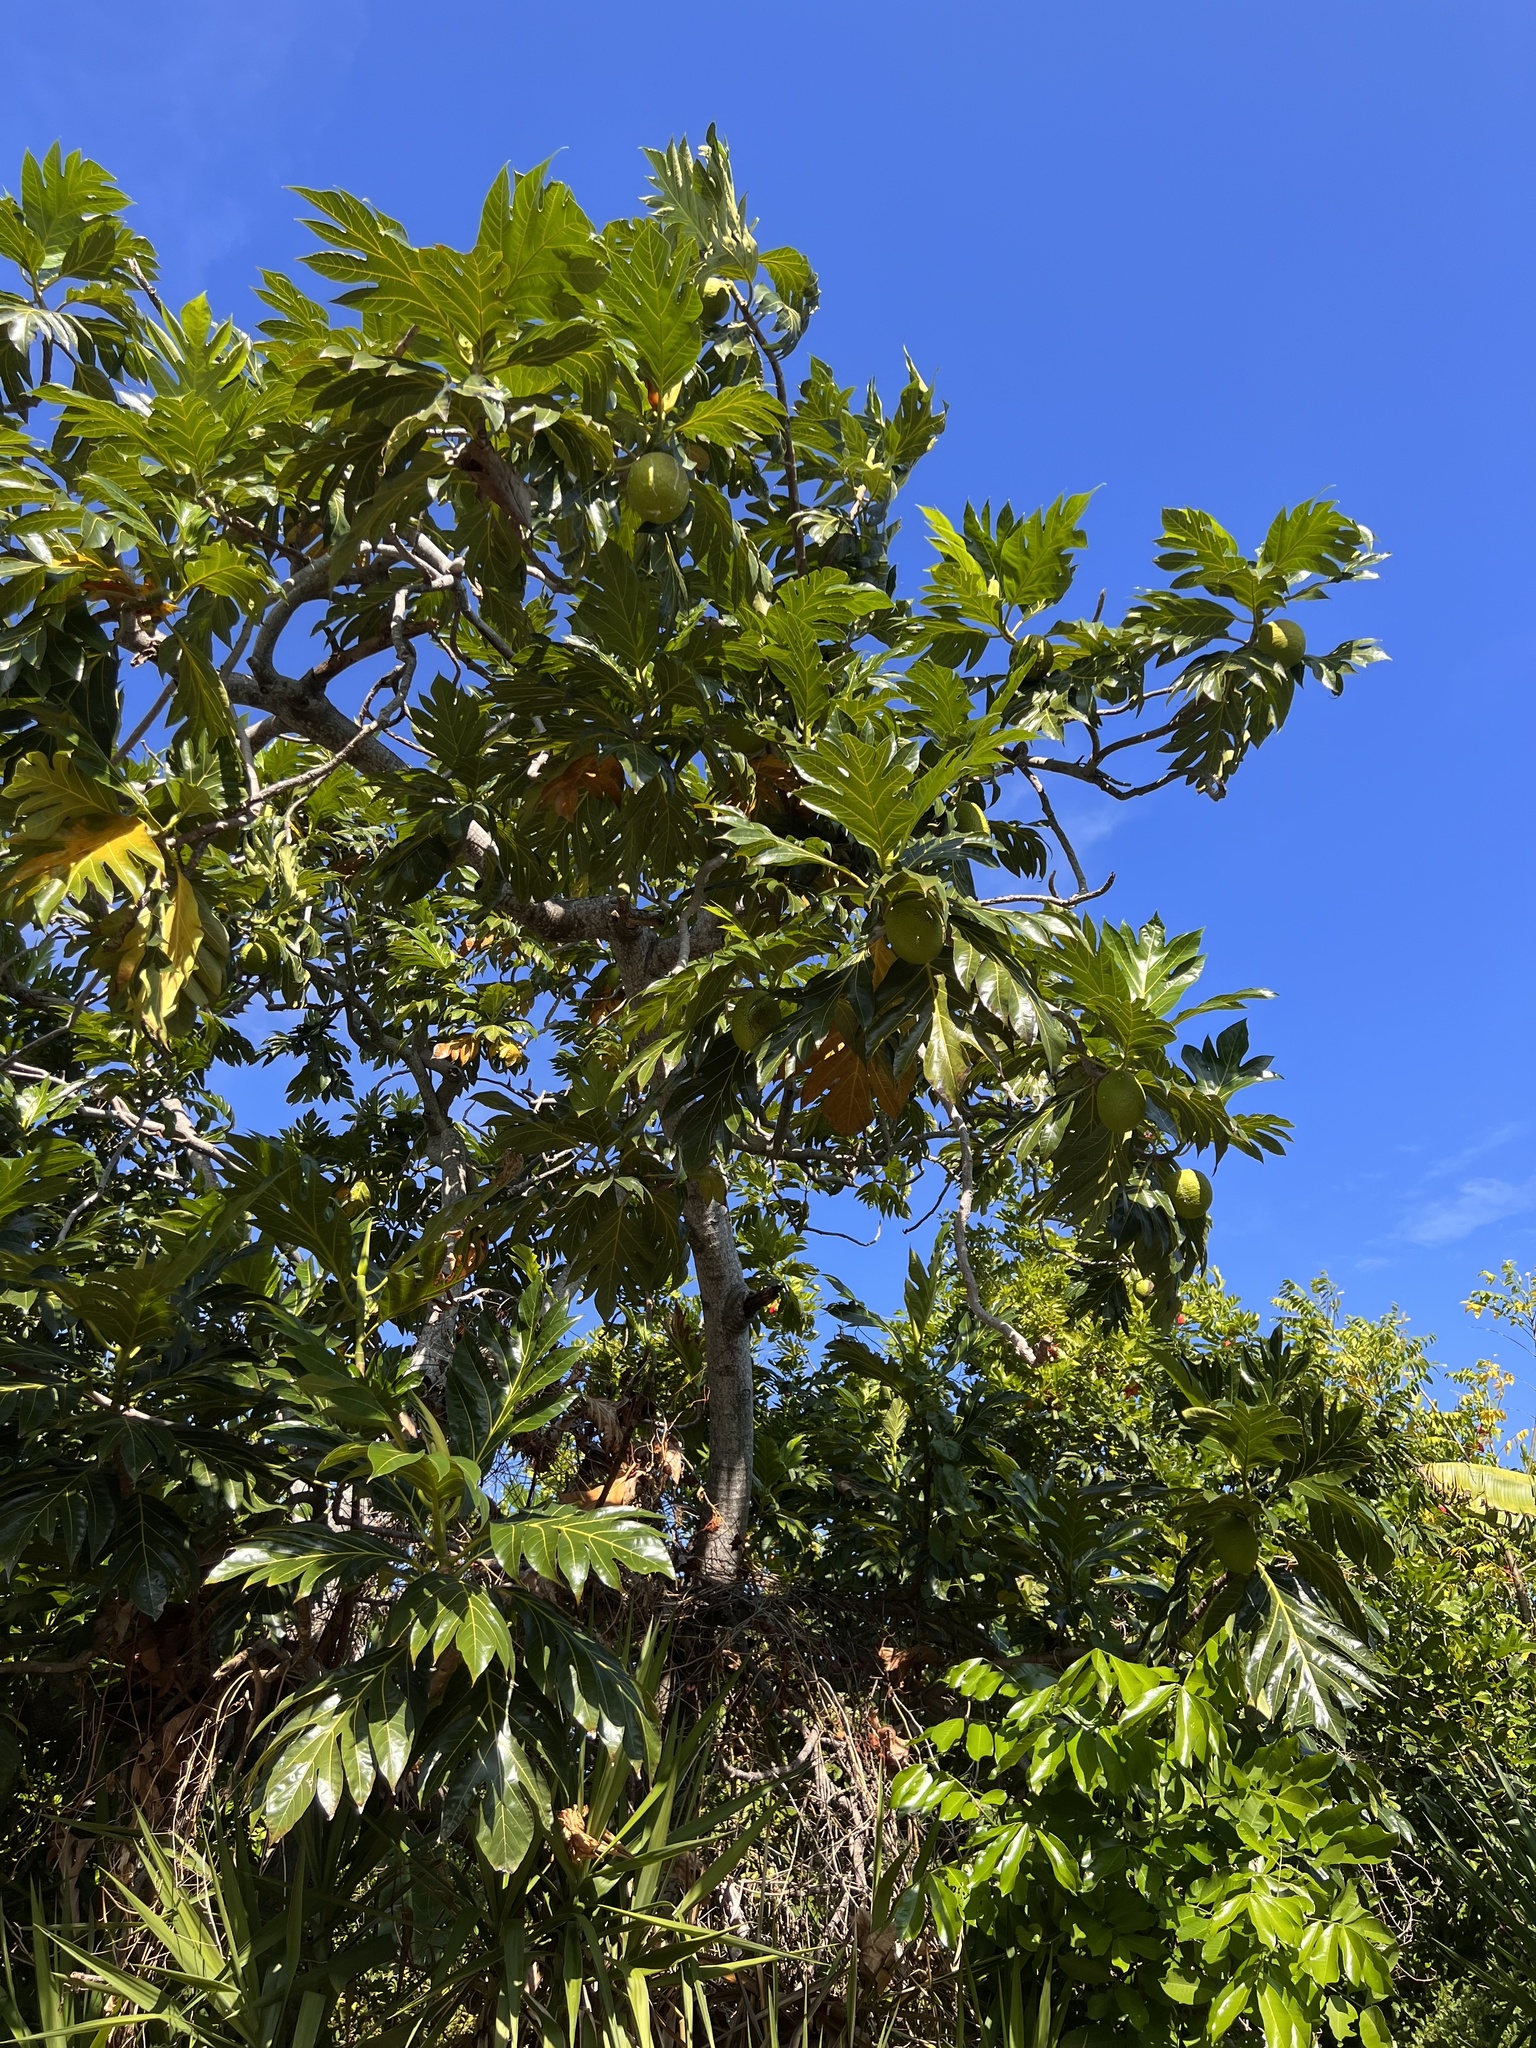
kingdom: Plantae
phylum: Tracheophyta
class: Magnoliopsida
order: Rosales
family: Moraceae
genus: Artocarpus
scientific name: Artocarpus altilis
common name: Breadfruit
